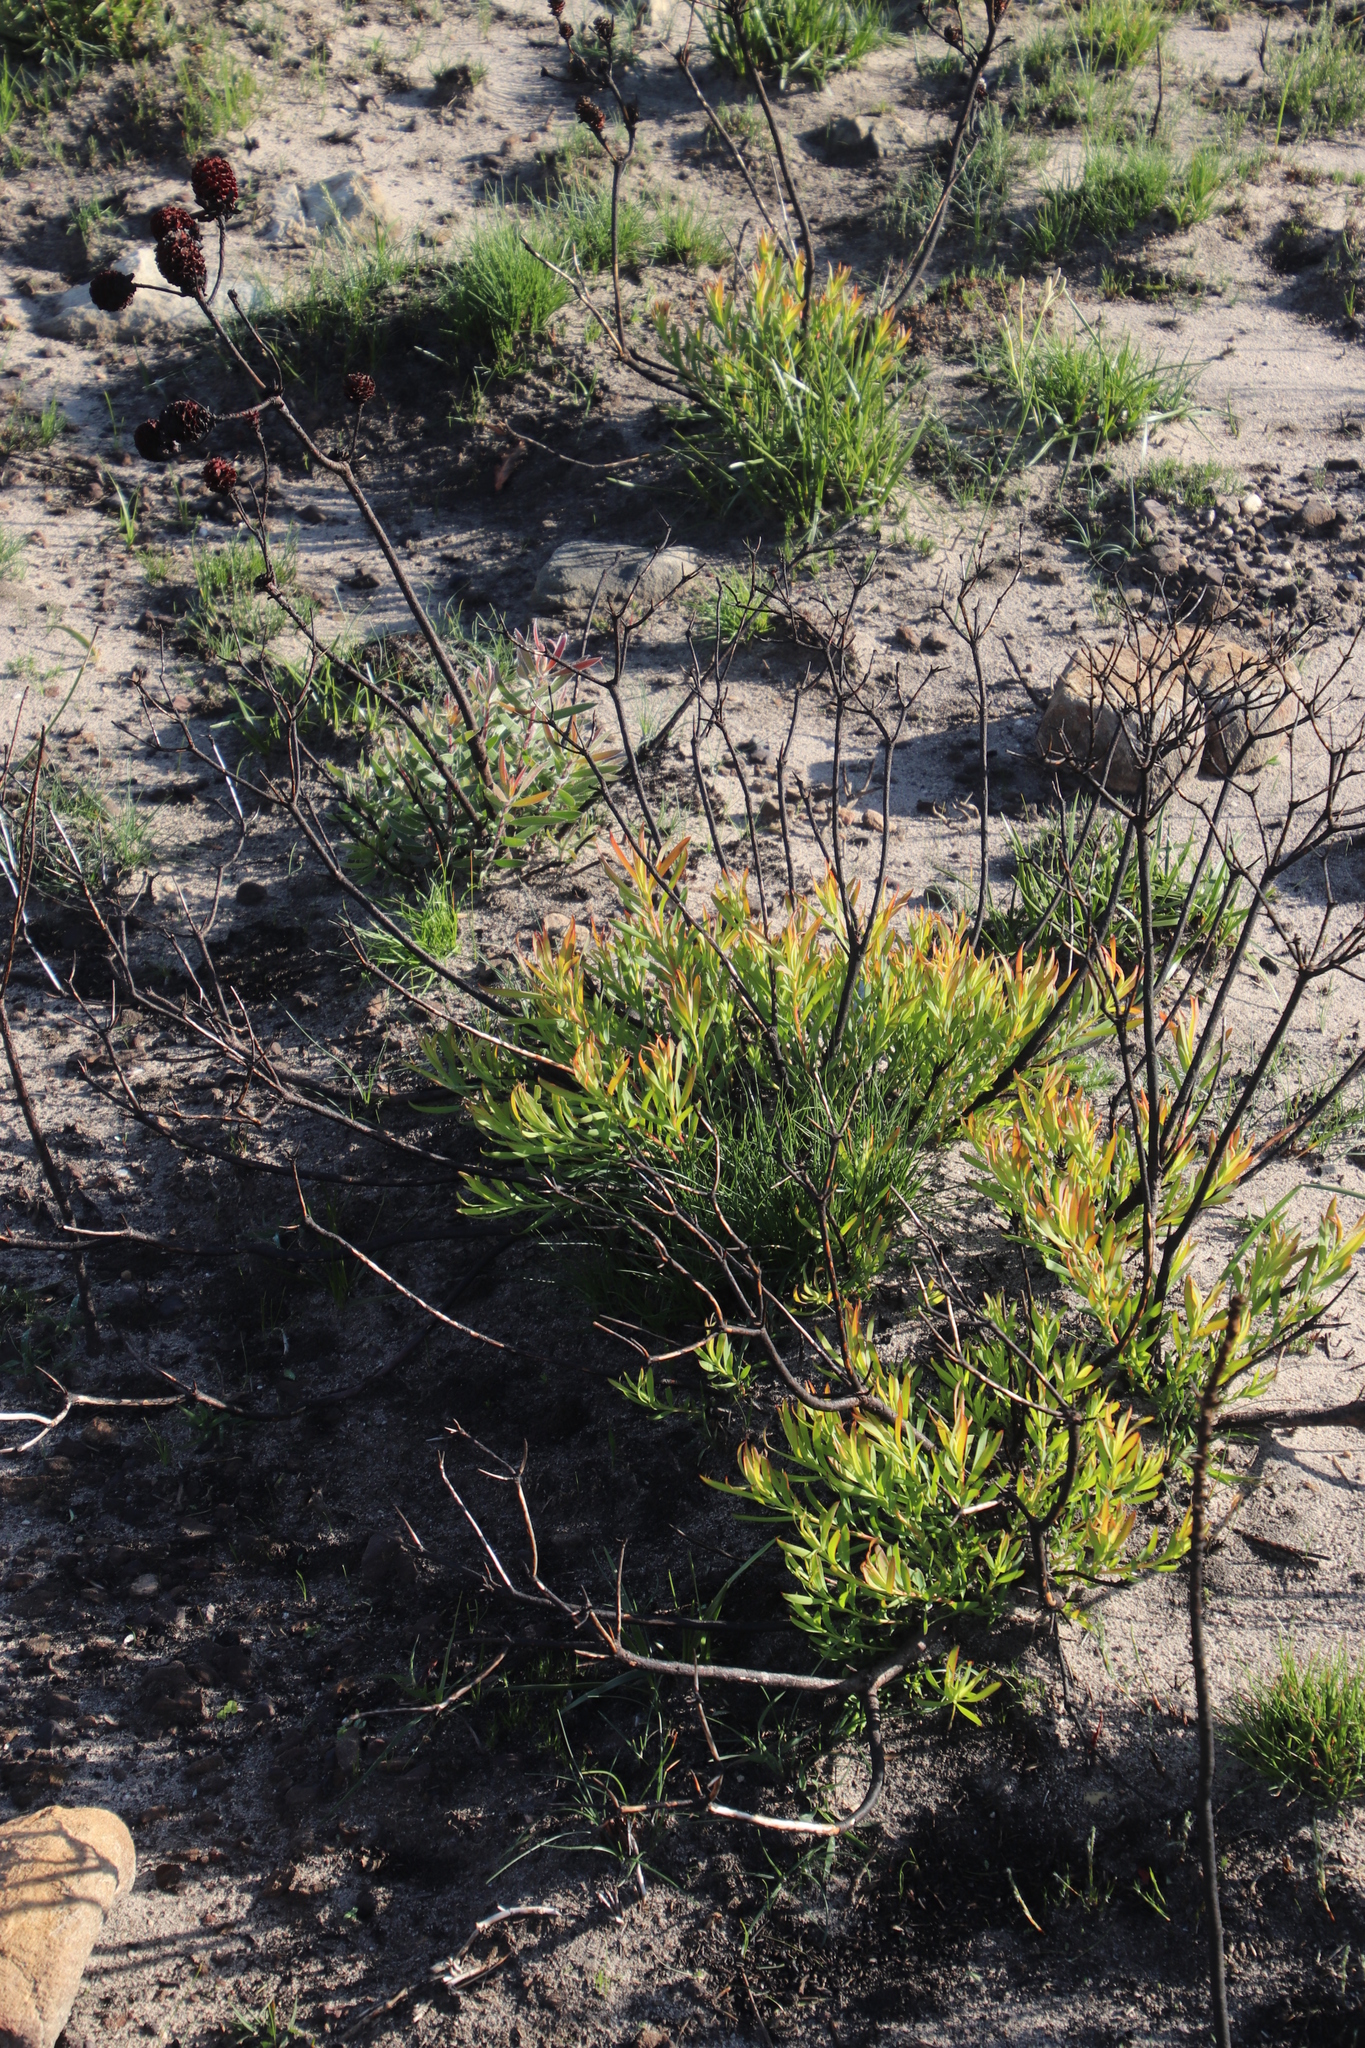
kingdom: Plantae
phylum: Tracheophyta
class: Magnoliopsida
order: Proteales
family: Proteaceae
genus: Leucadendron
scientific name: Leucadendron salignum
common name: Common sunshine conebush
